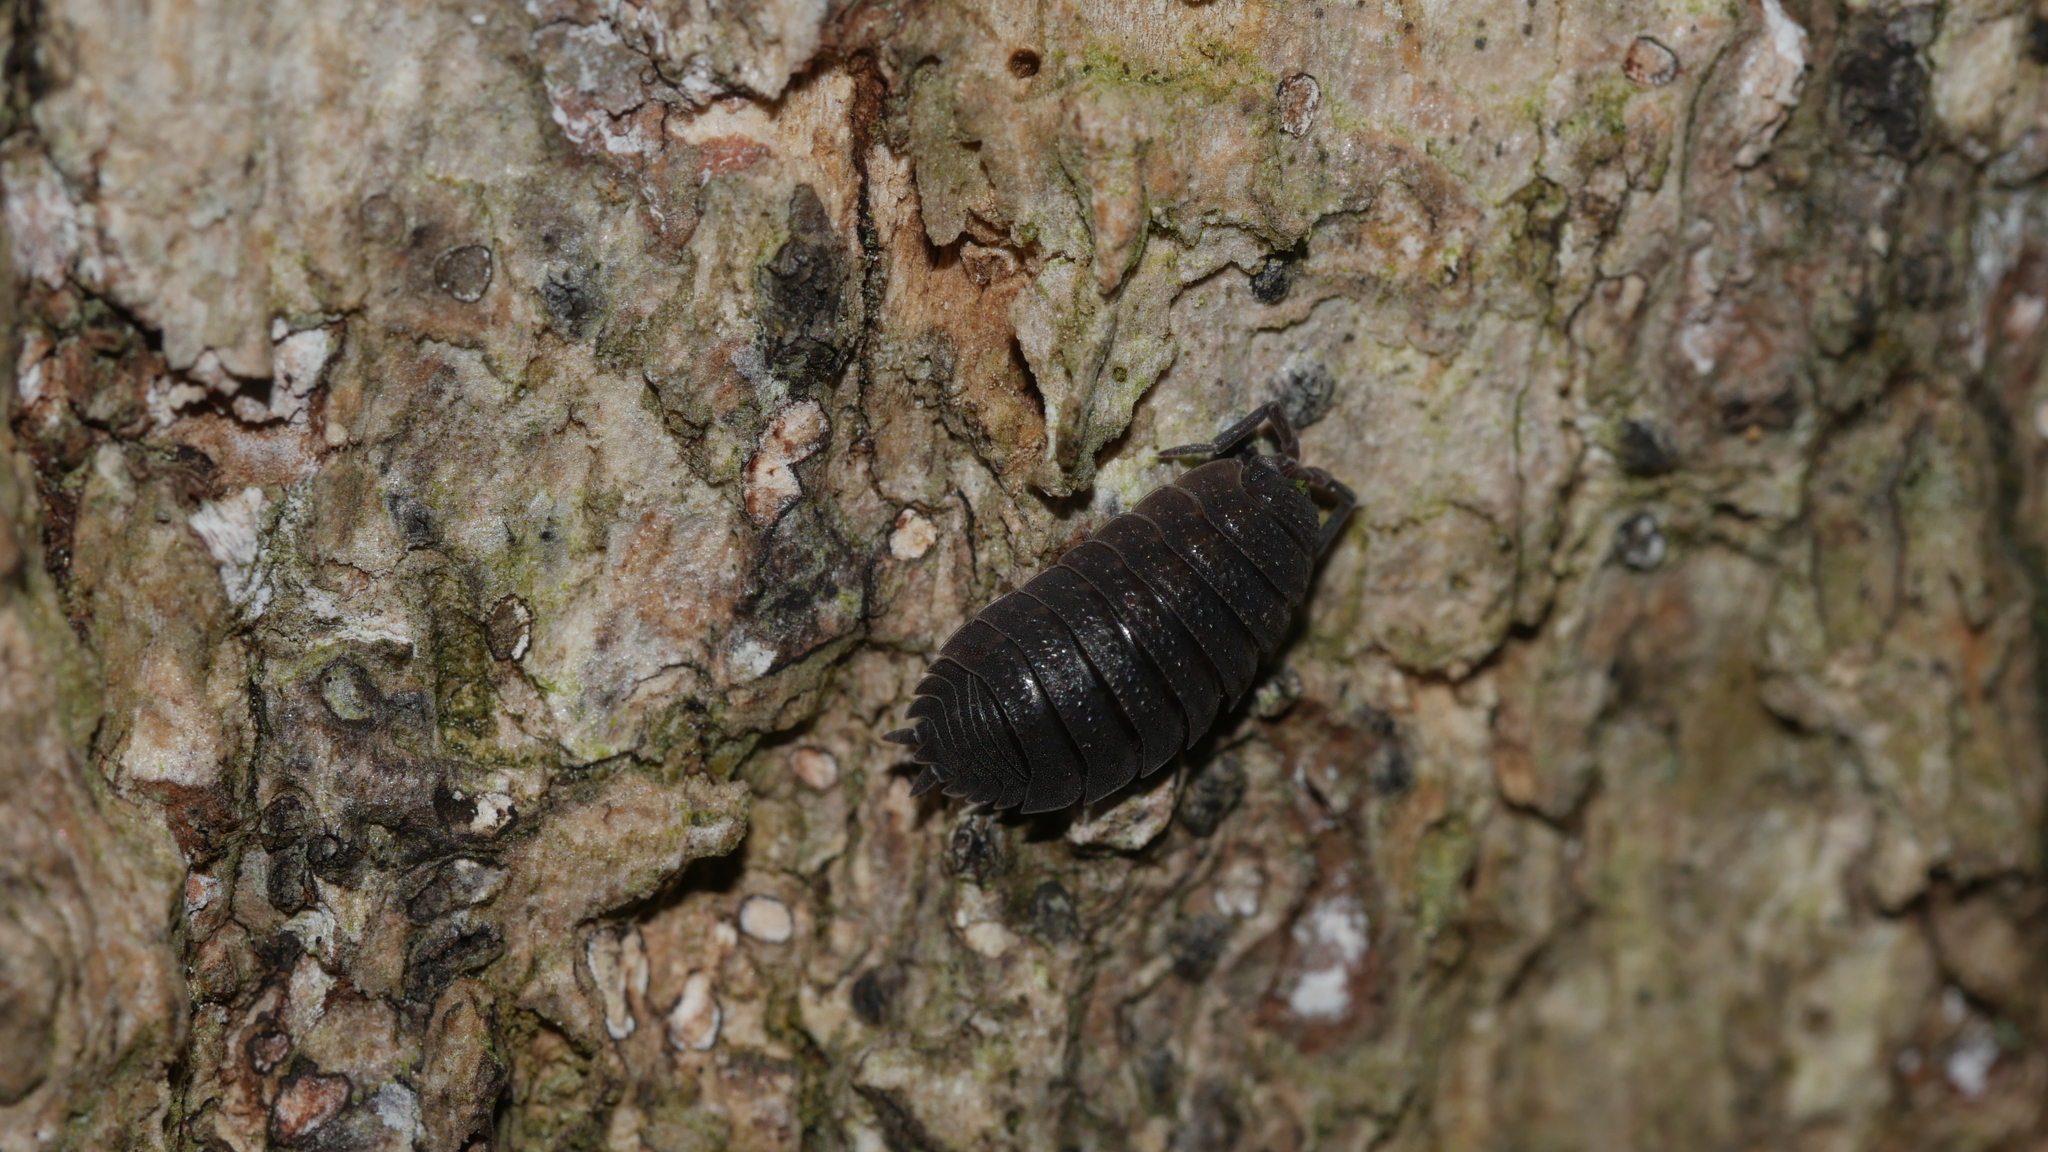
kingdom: Animalia
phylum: Arthropoda
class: Malacostraca
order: Isopoda
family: Porcellionidae
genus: Porcellio
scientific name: Porcellio scaber
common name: Common rough woodlouse
